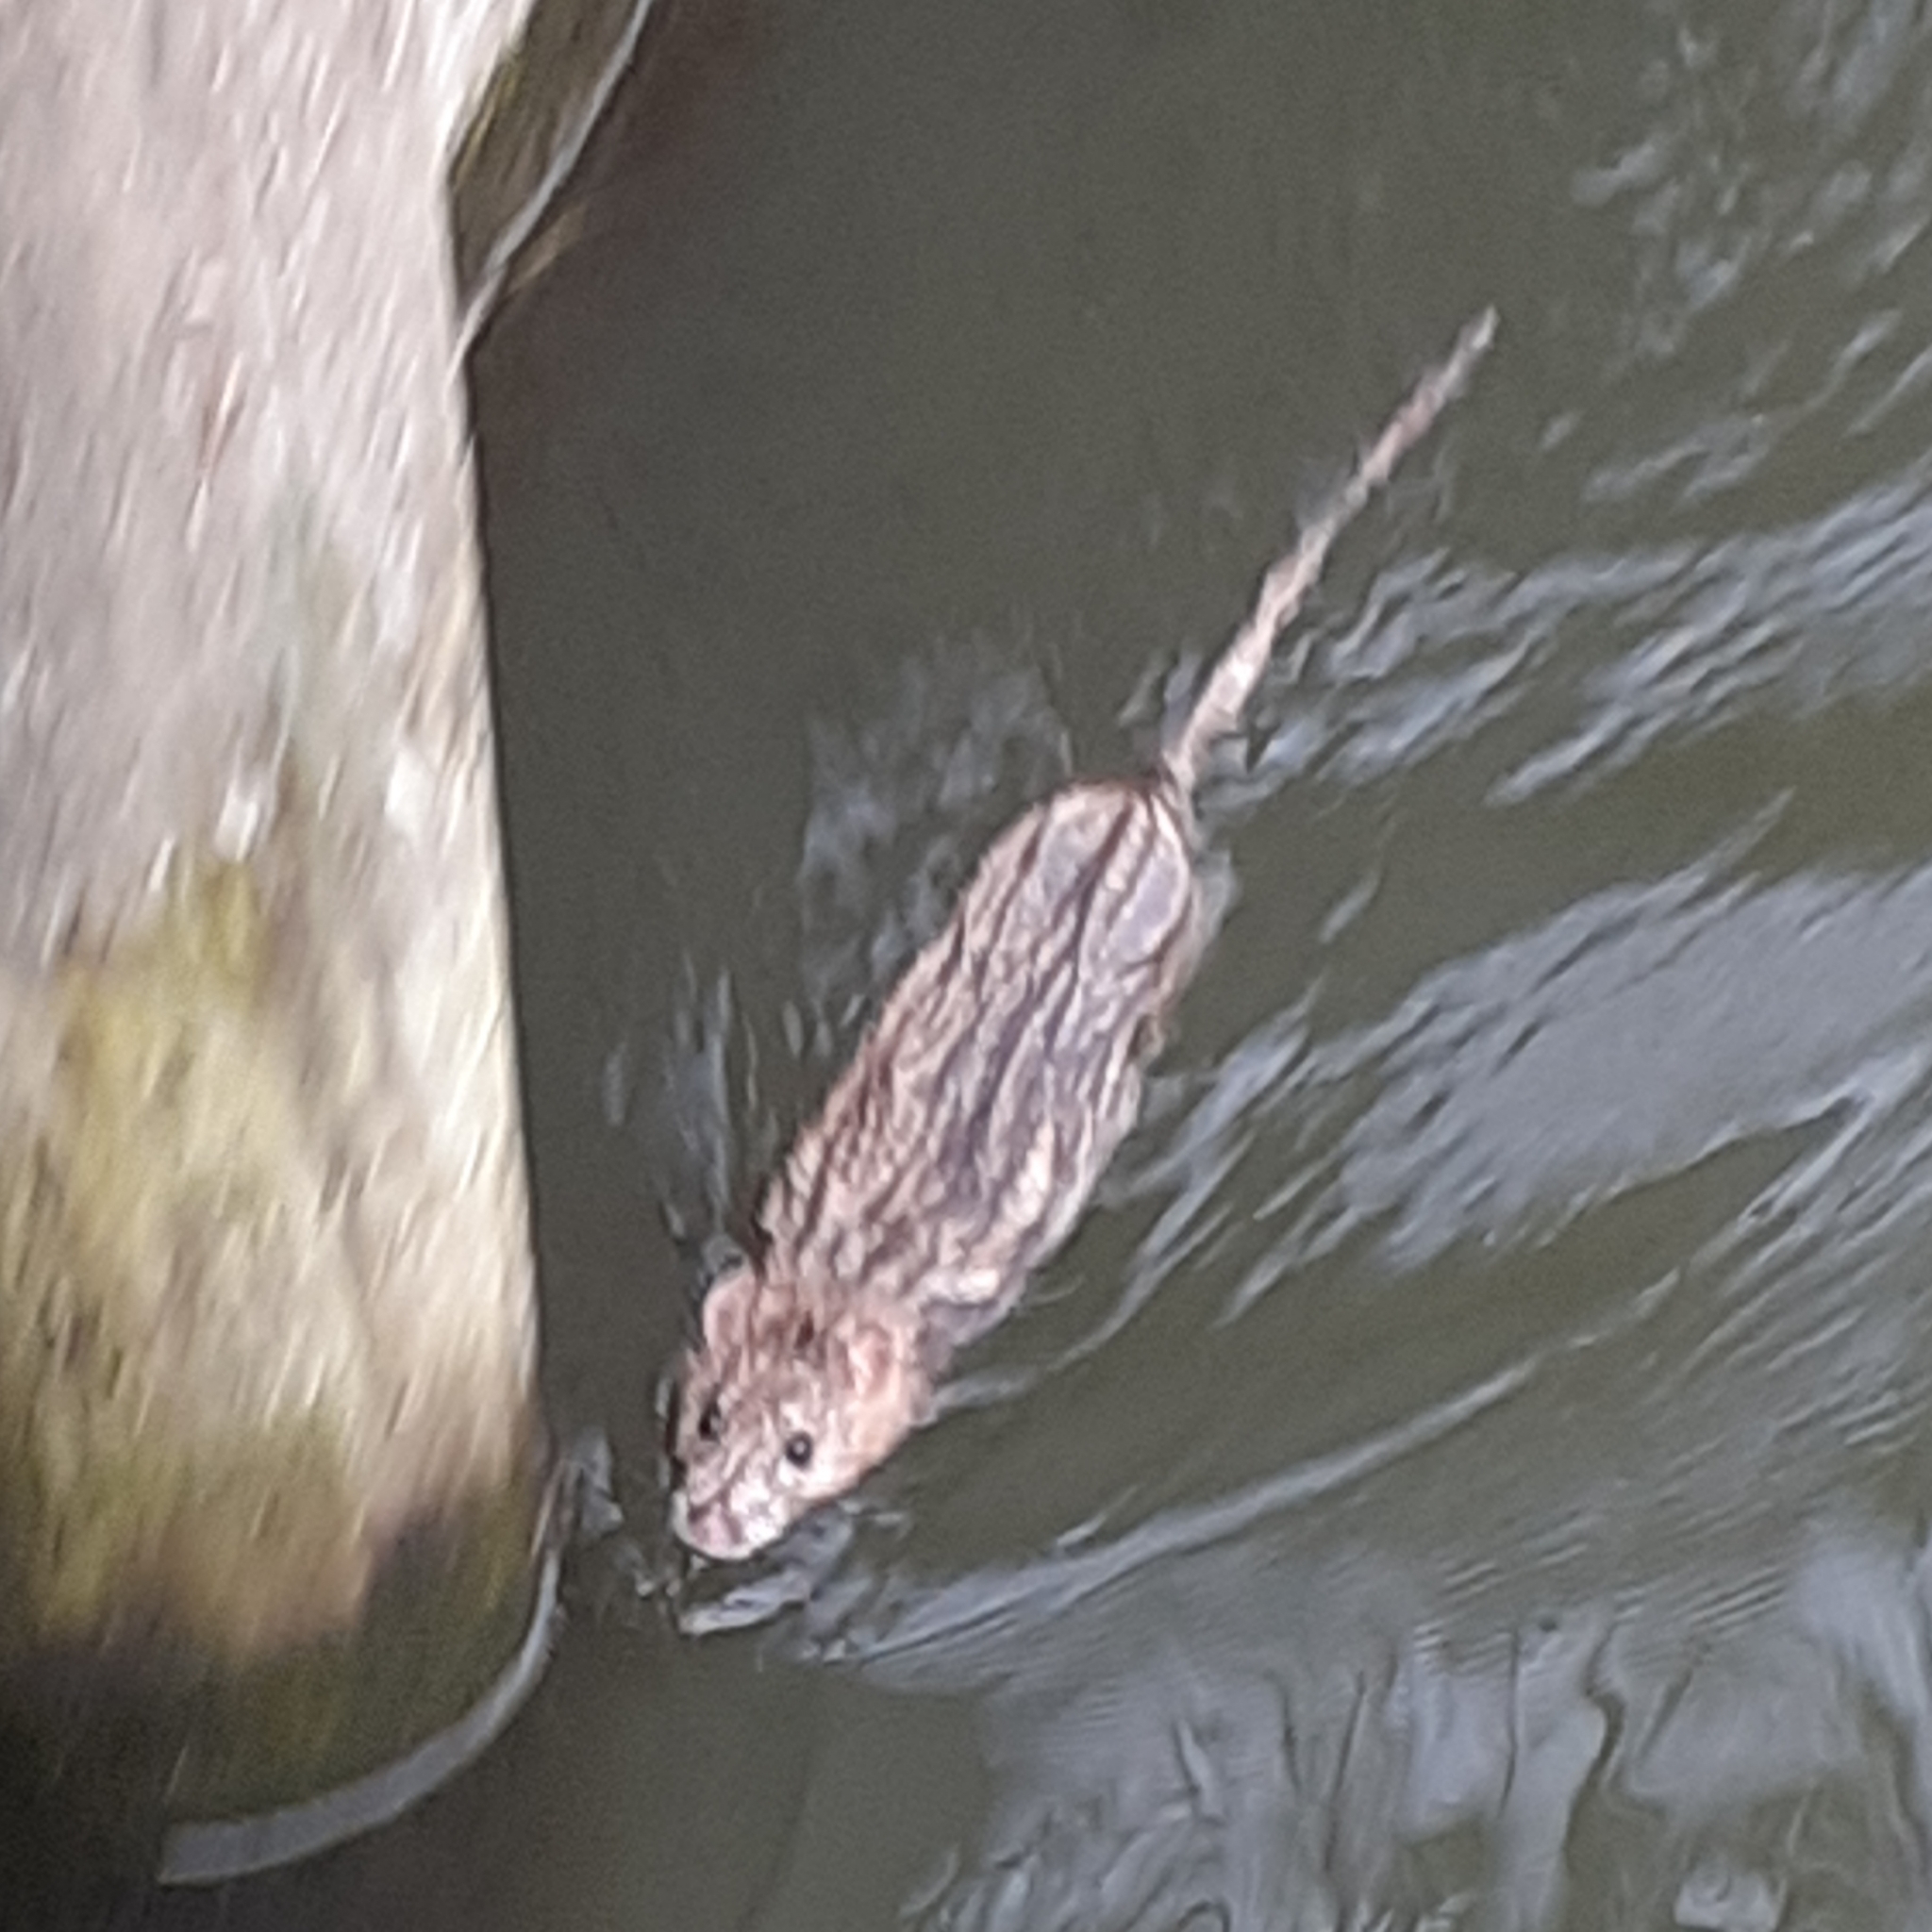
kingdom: Animalia
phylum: Chordata
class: Mammalia
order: Rodentia
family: Muridae
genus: Rattus
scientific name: Rattus norvegicus
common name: Brown rat
